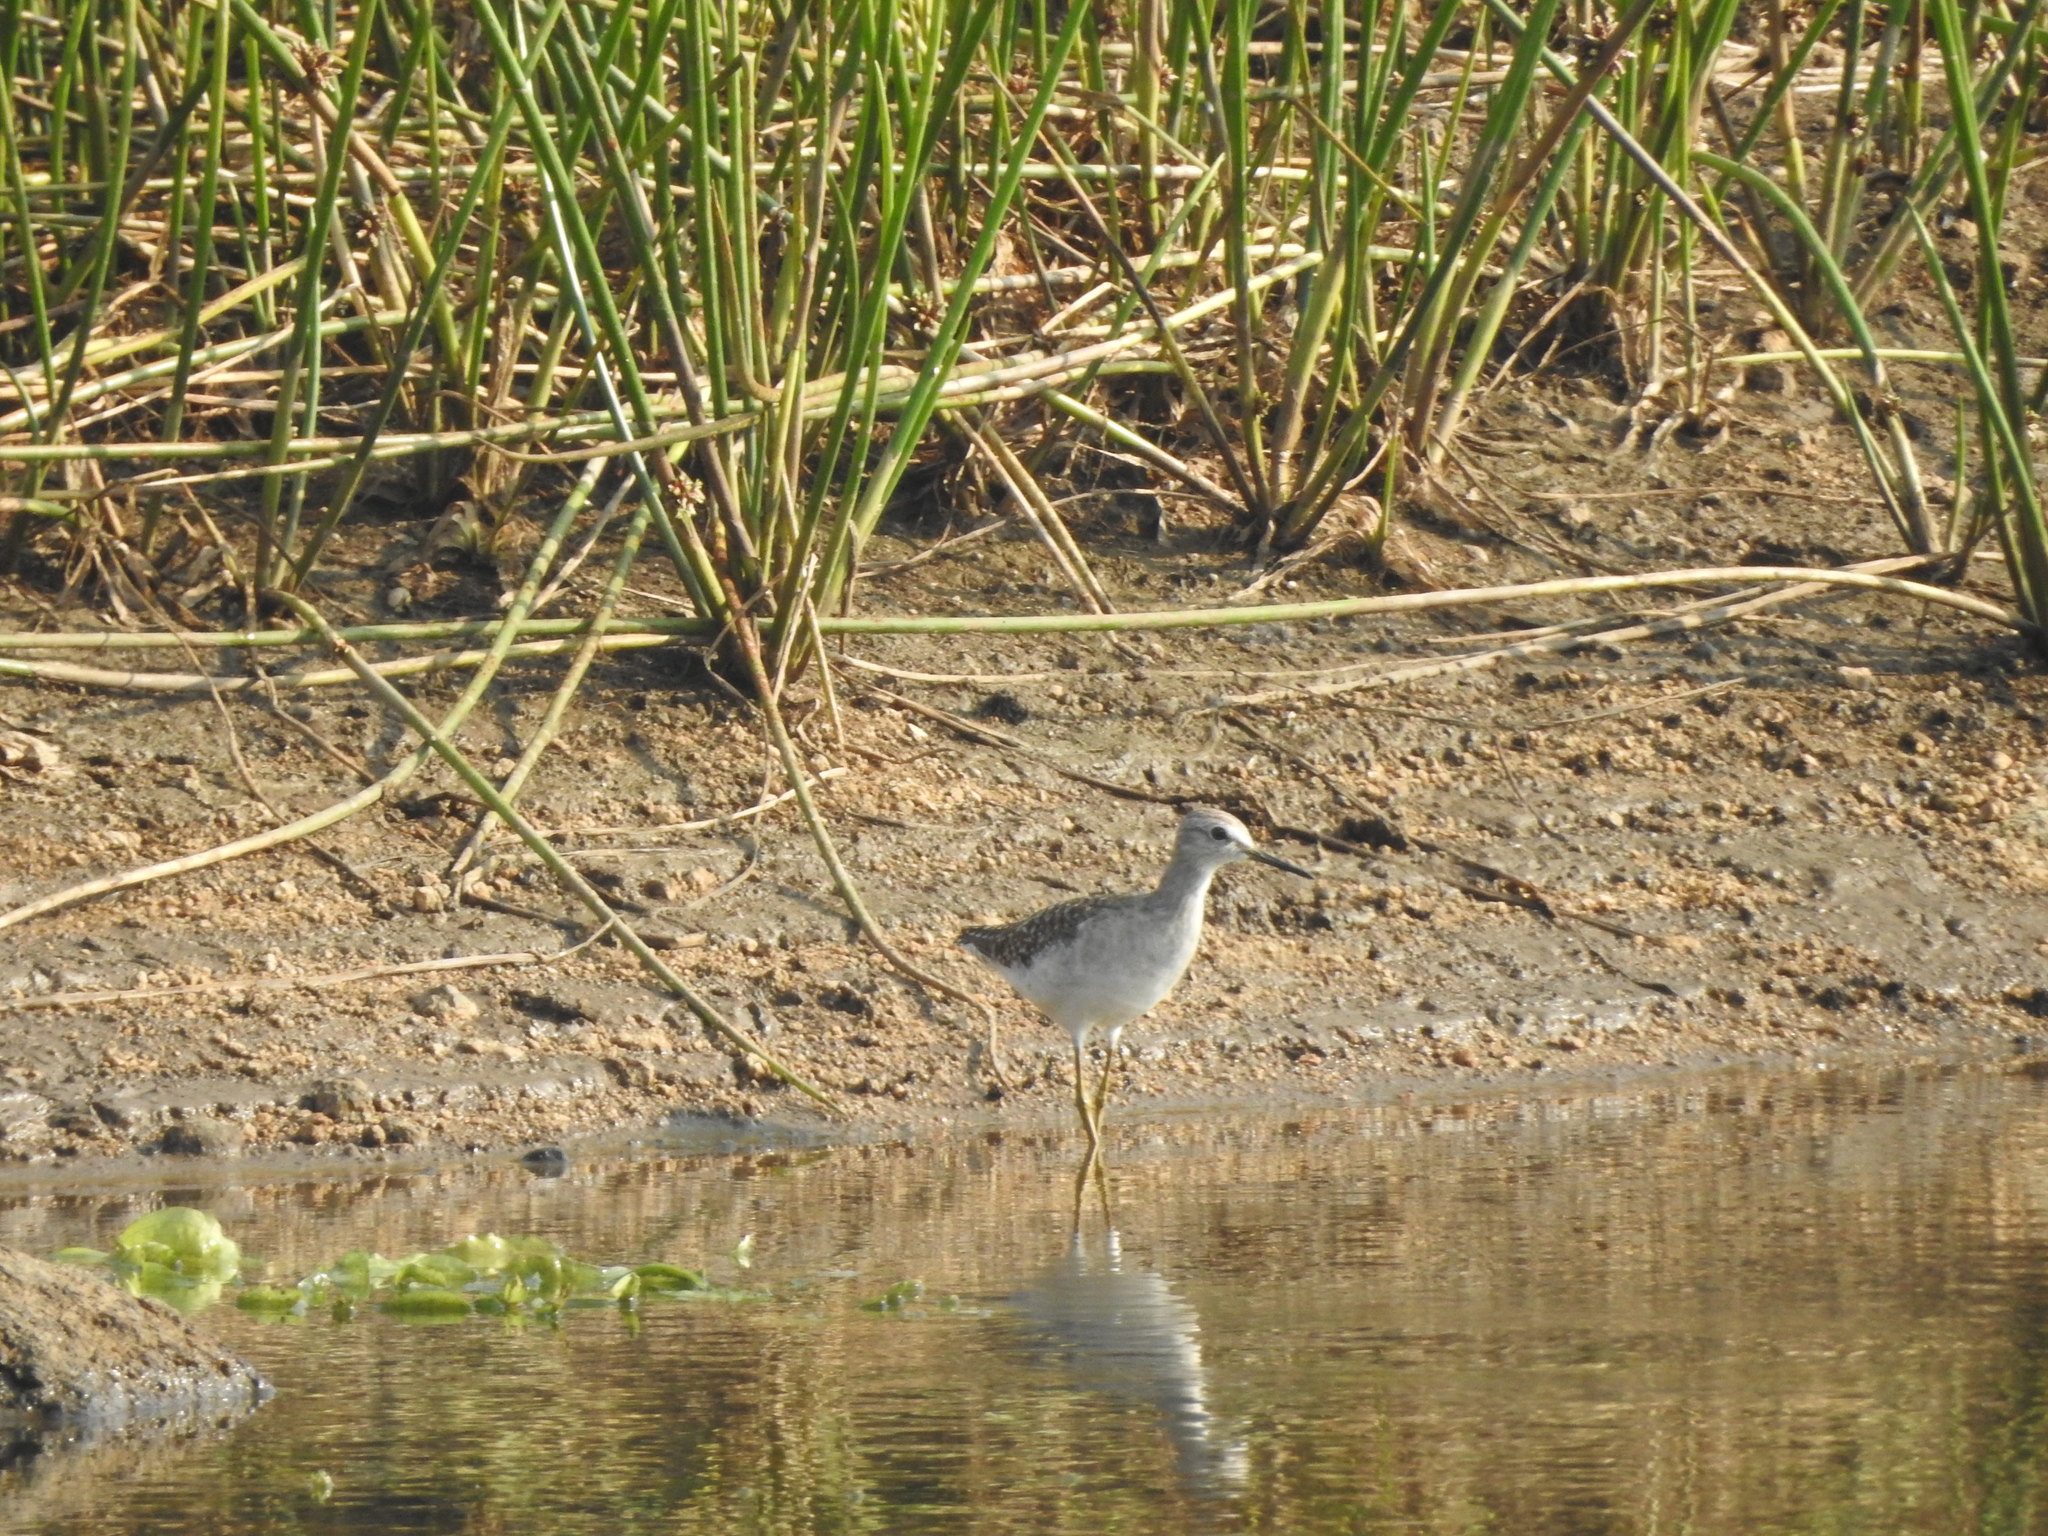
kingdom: Animalia
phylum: Chordata
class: Aves
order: Charadriiformes
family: Scolopacidae
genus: Tringa
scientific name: Tringa glareola
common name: Wood sandpiper
